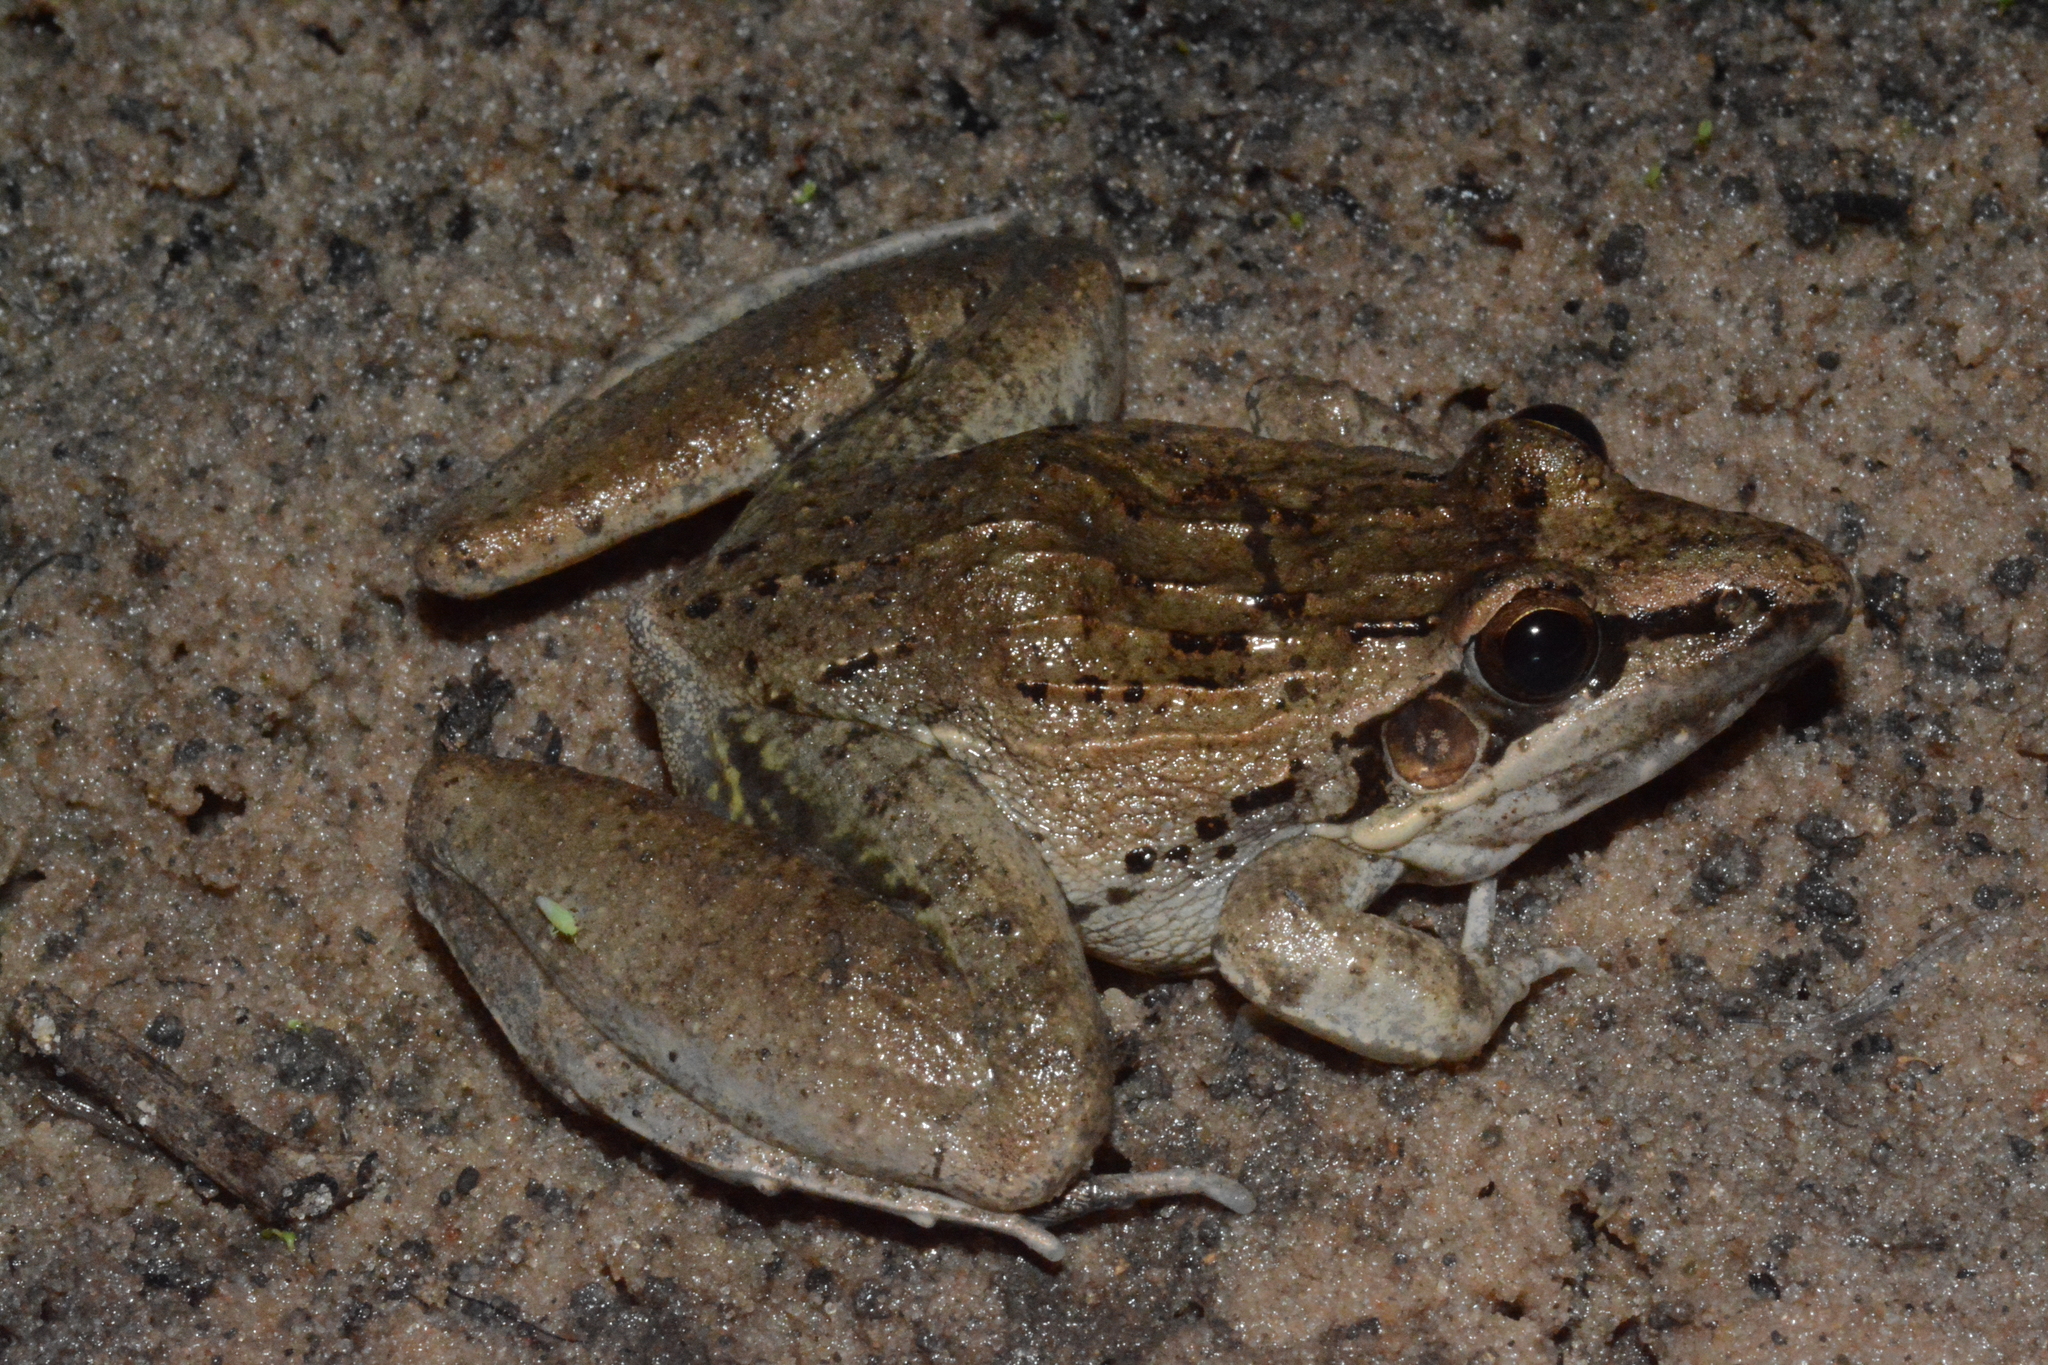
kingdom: Animalia
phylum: Chordata
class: Amphibia
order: Anura
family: Ptychadenidae
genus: Ptychadena
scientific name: Ptychadena anchietae
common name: Anchieta's ridged frog
